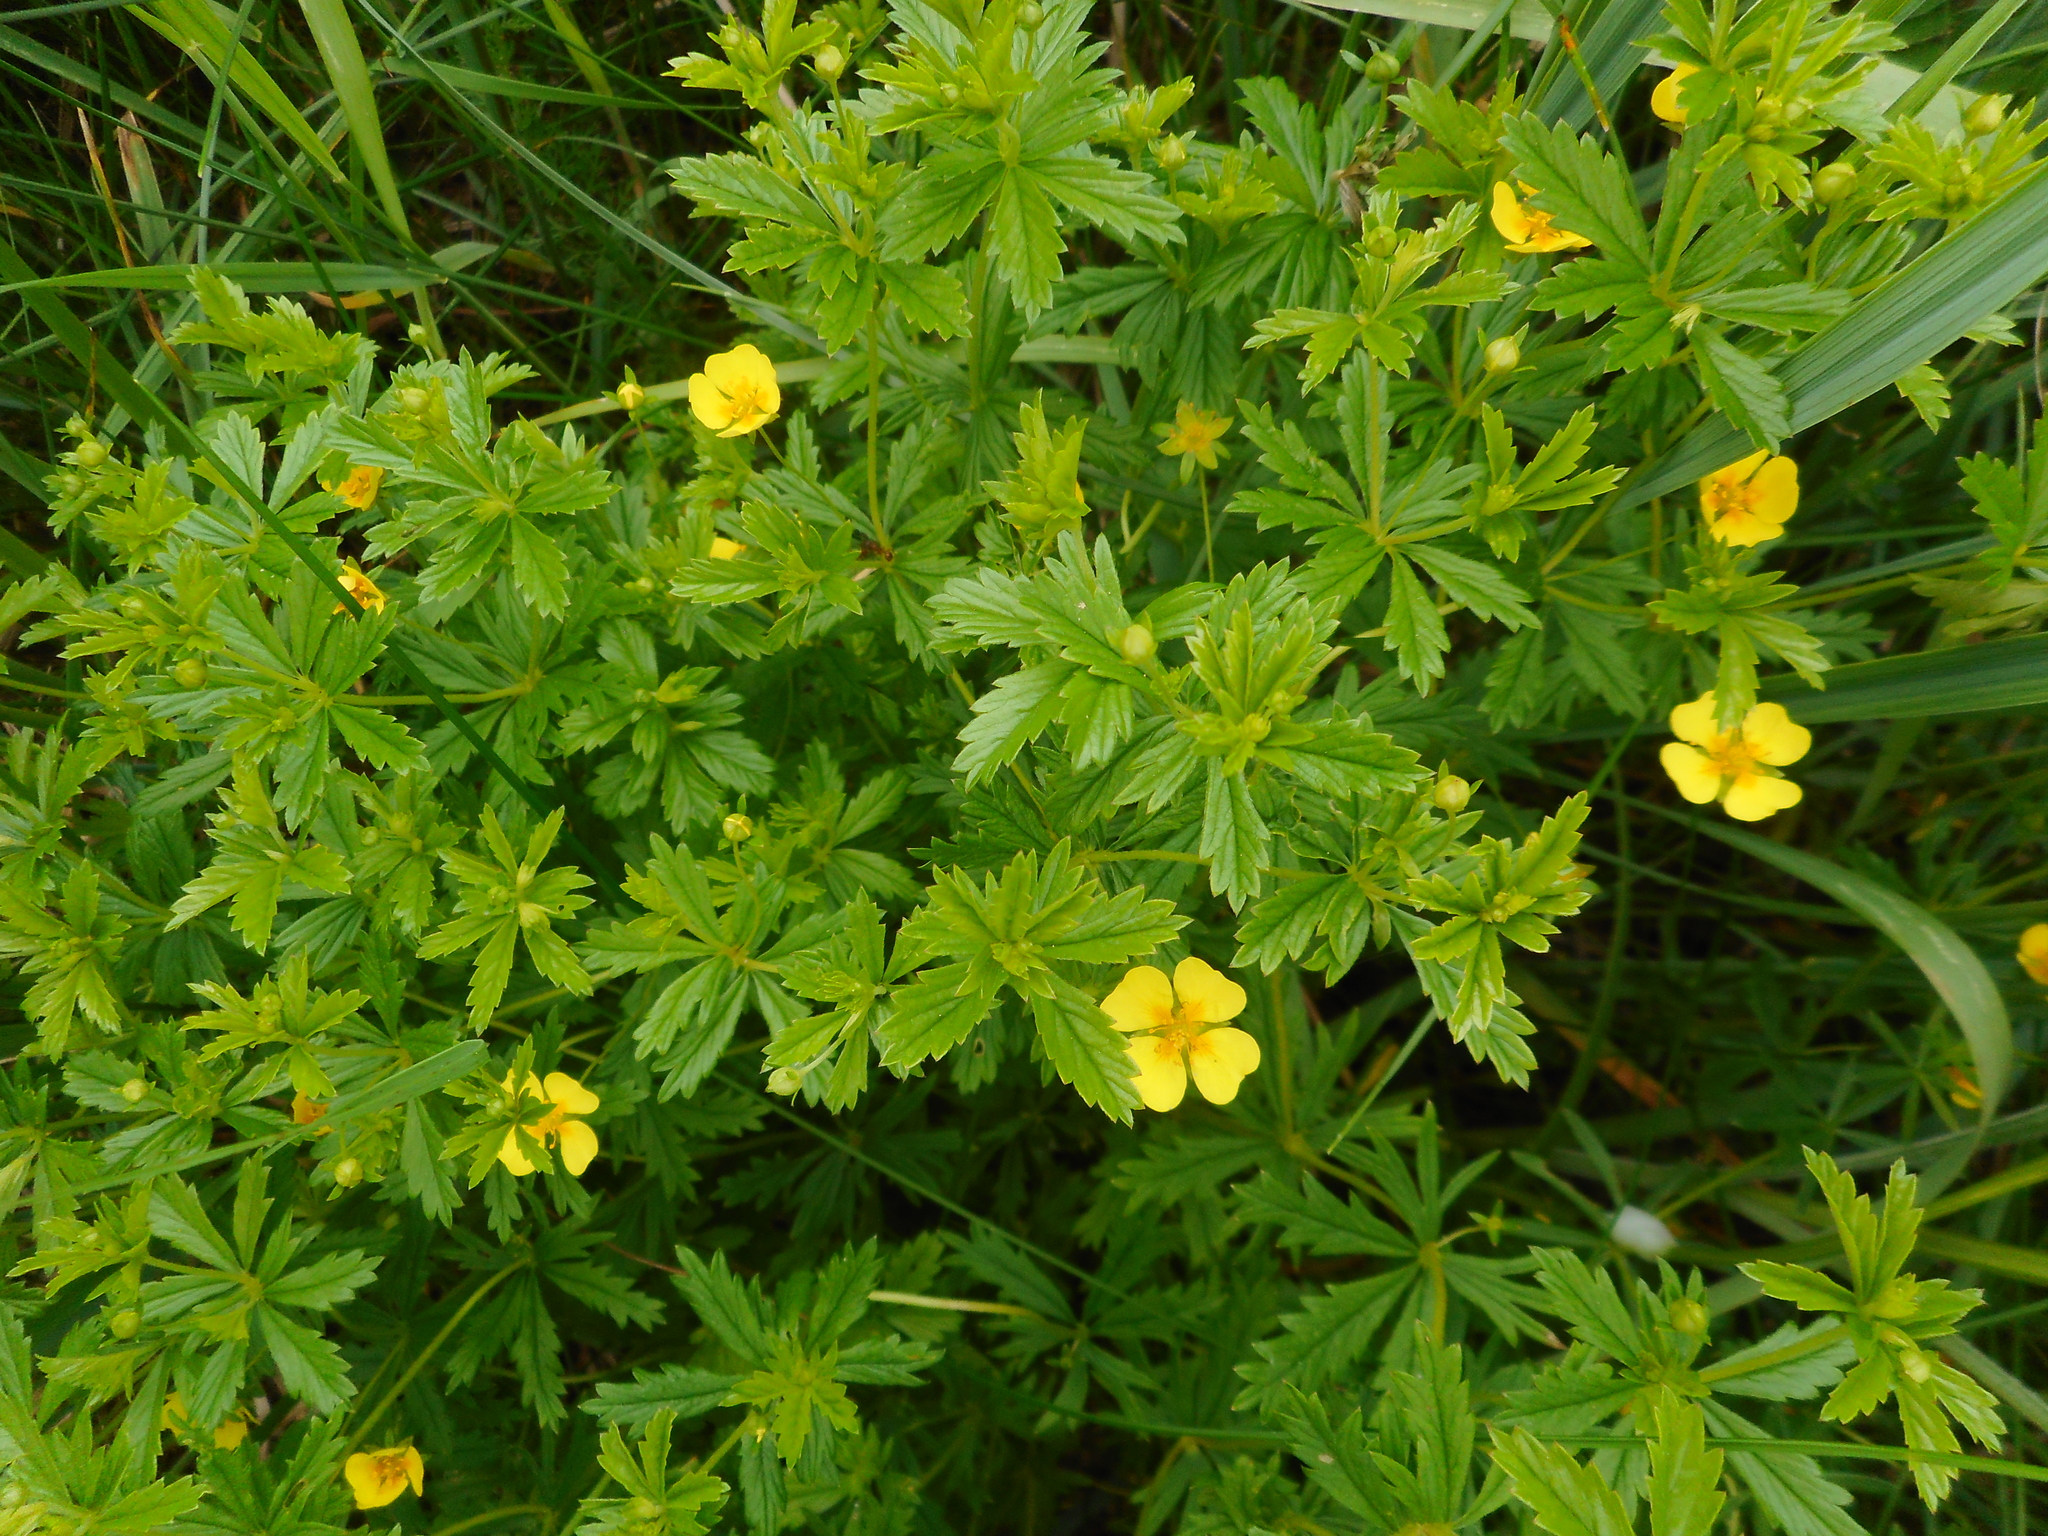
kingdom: Plantae
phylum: Tracheophyta
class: Magnoliopsida
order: Rosales
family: Rosaceae
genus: Potentilla
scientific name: Potentilla erecta
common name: Tormentil
